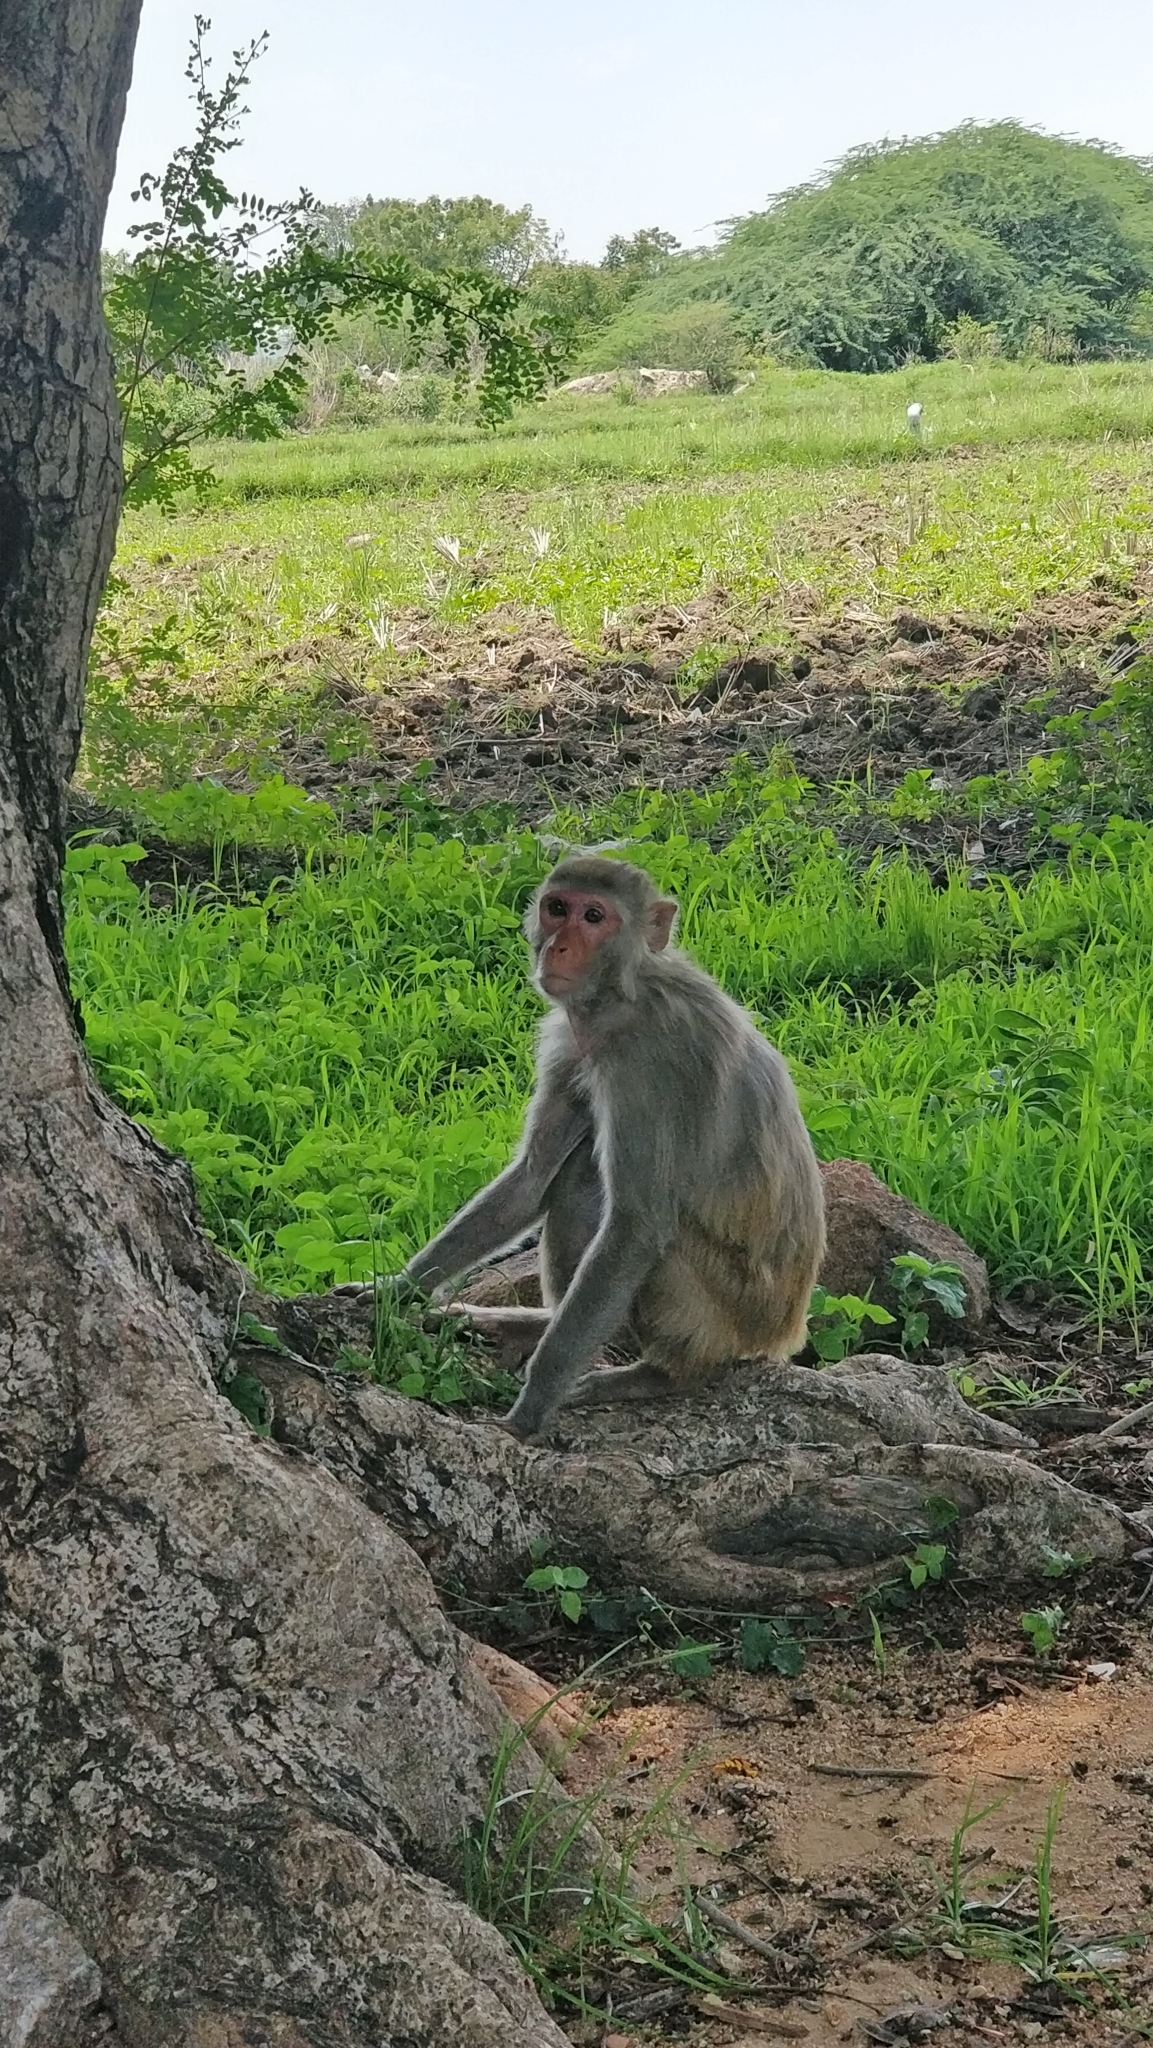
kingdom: Animalia
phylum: Chordata
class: Mammalia
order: Primates
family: Cercopithecidae
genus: Macaca
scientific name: Macaca mulatta
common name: Rhesus monkey
